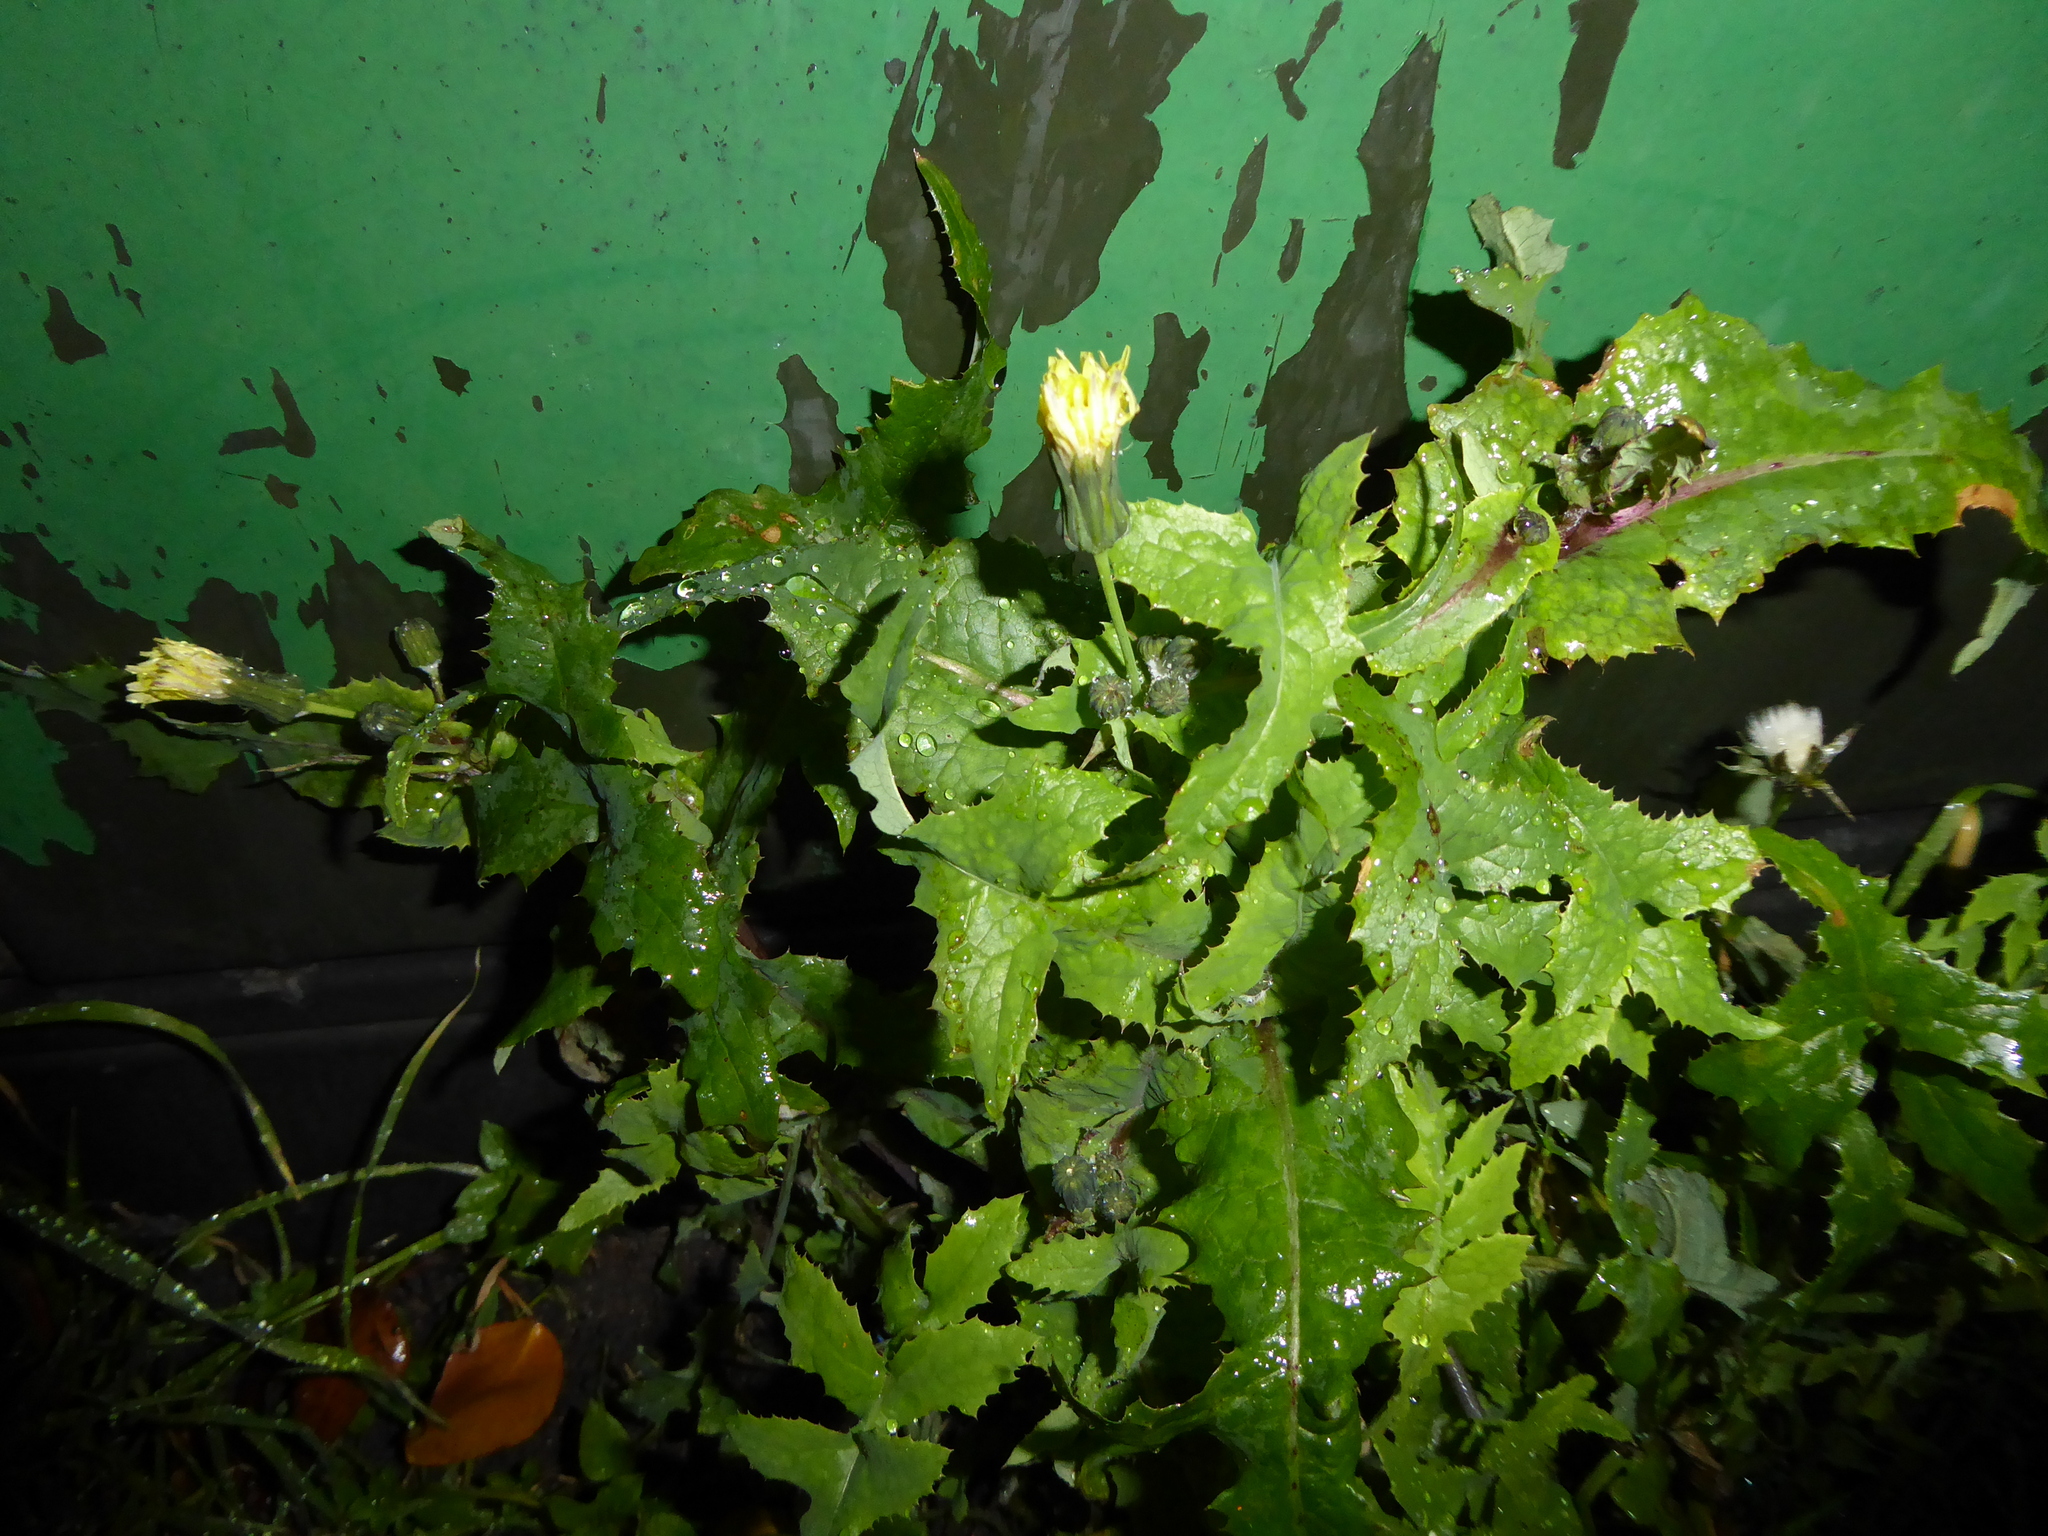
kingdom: Plantae
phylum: Tracheophyta
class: Magnoliopsida
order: Asterales
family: Asteraceae
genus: Sonchus
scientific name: Sonchus oleraceus
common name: Common sowthistle
